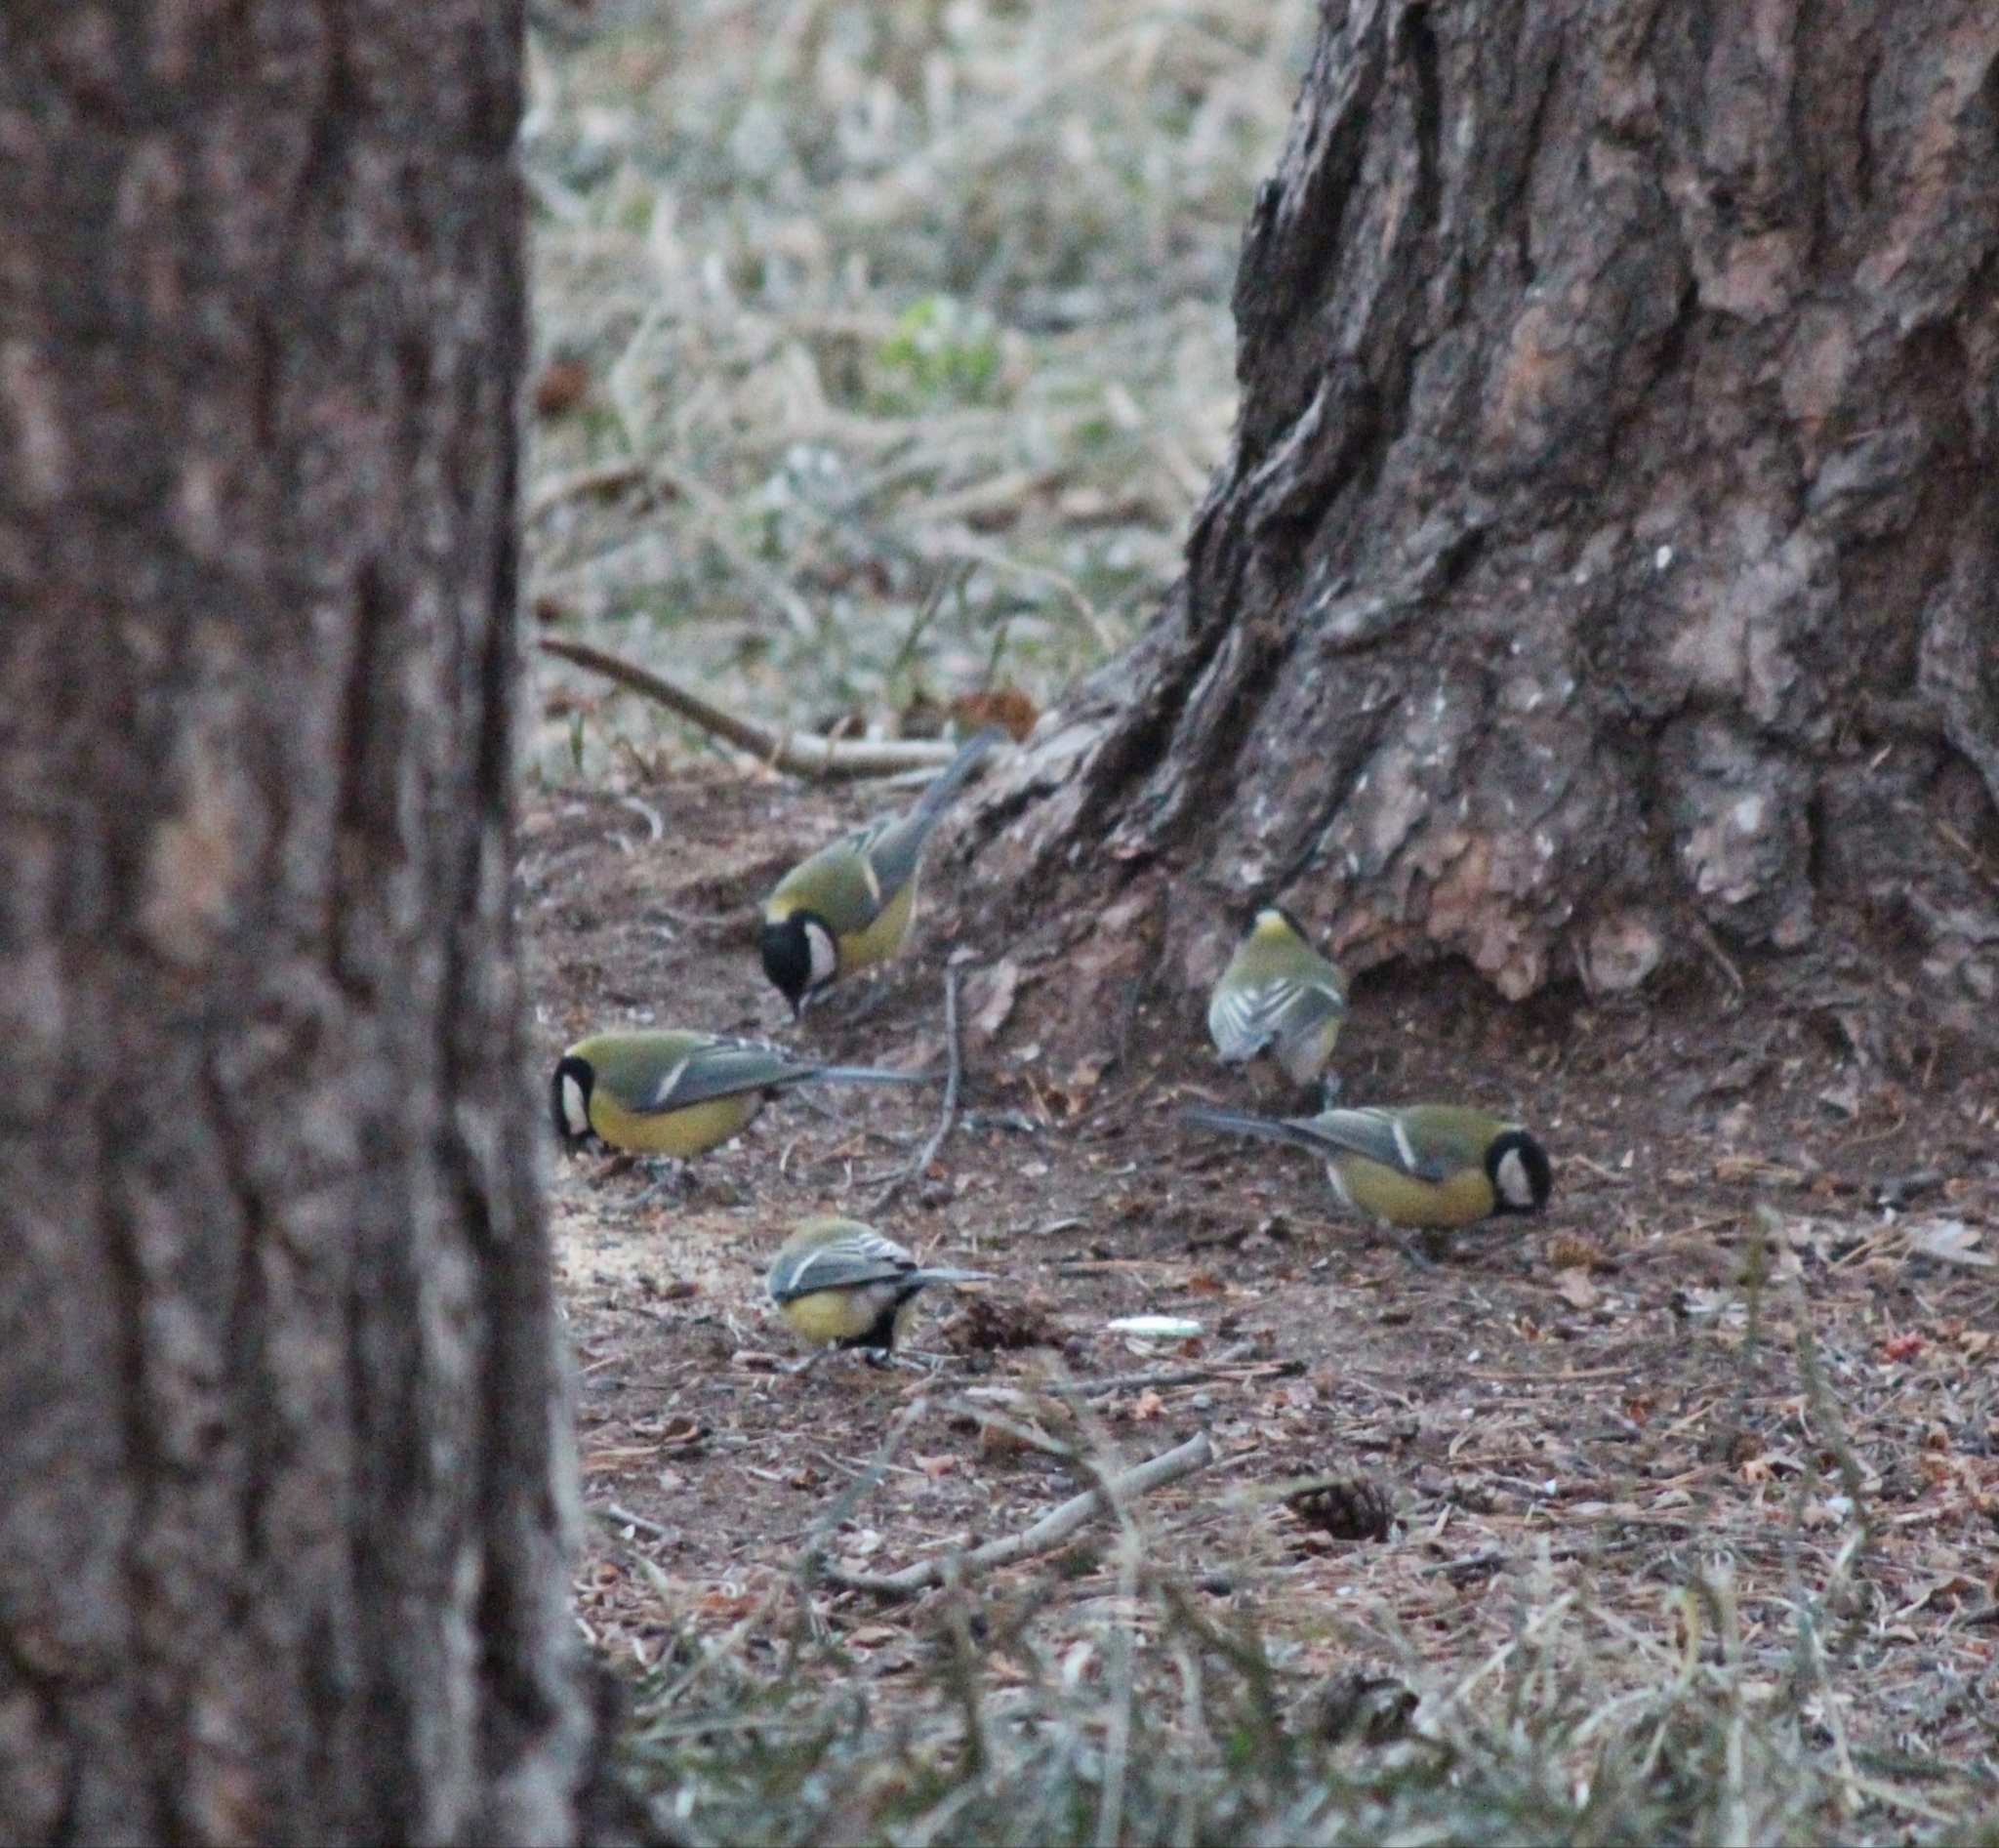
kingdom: Animalia
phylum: Chordata
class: Aves
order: Passeriformes
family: Paridae
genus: Parus
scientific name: Parus major
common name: Great tit
